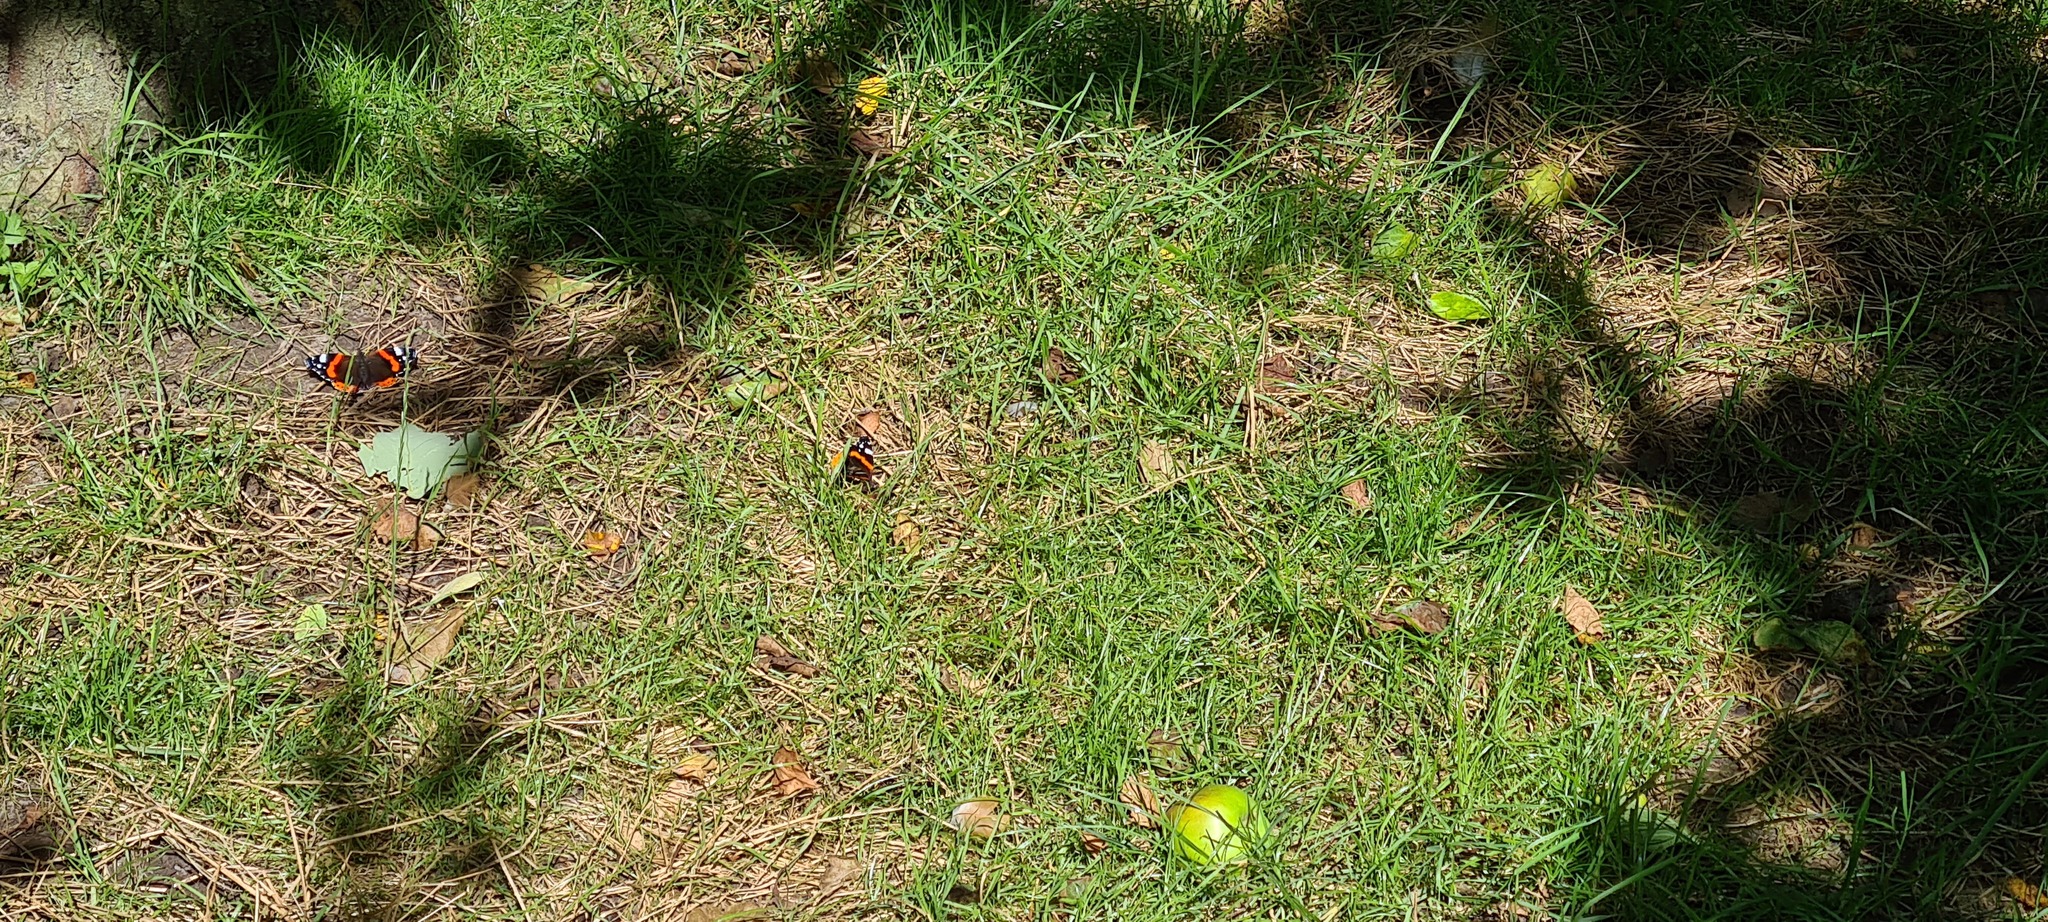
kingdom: Animalia
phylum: Arthropoda
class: Insecta
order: Lepidoptera
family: Nymphalidae
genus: Vanessa
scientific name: Vanessa atalanta
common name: Red admiral
